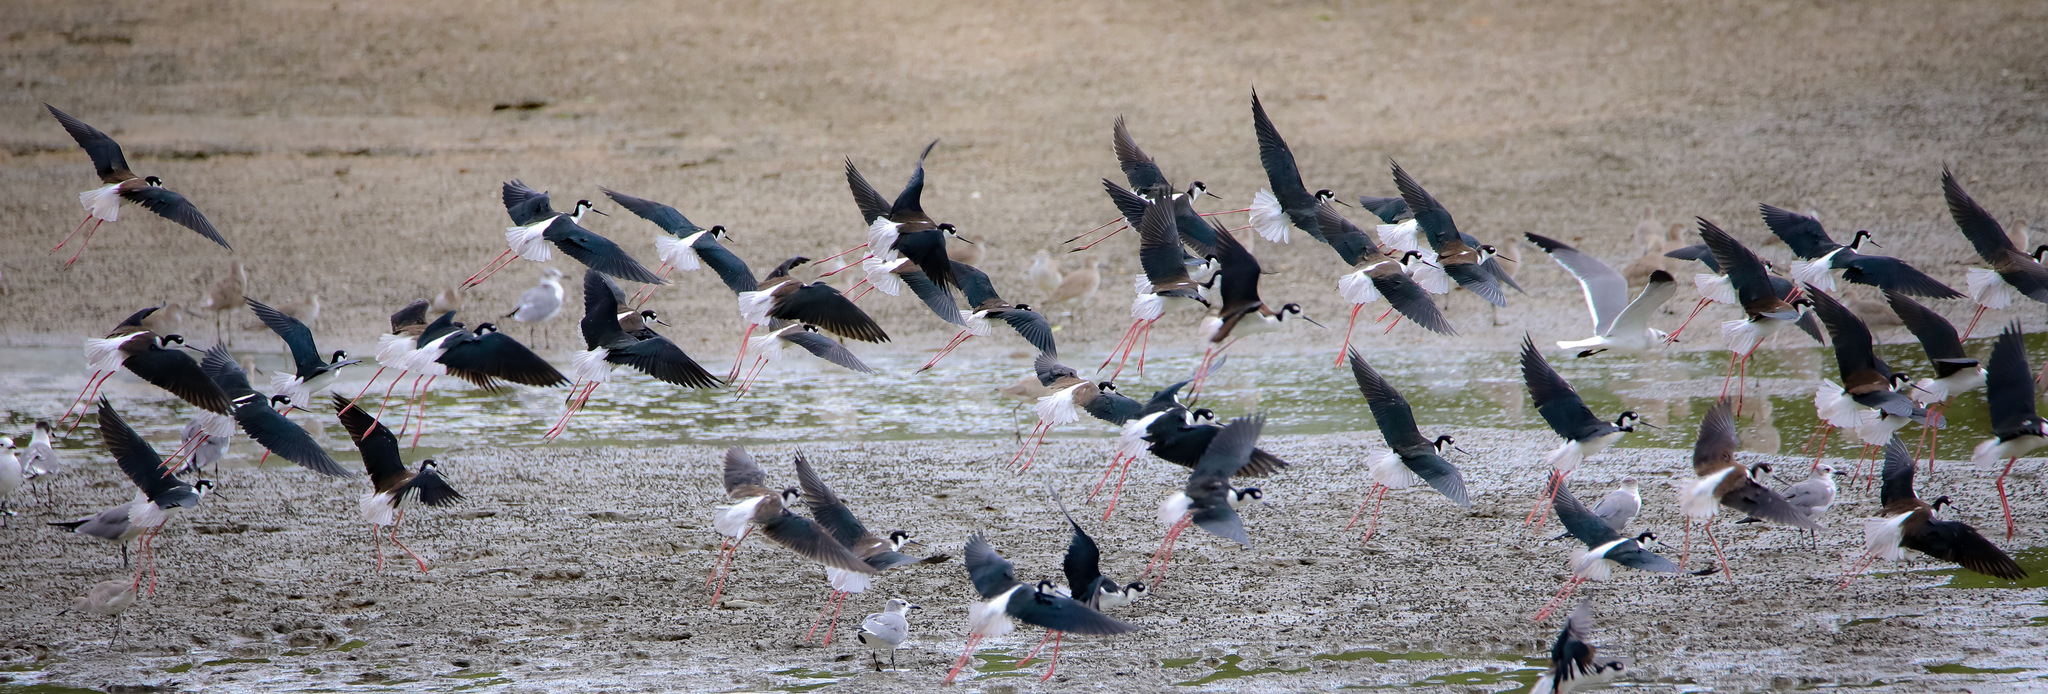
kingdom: Animalia
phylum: Chordata
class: Aves
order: Charadriiformes
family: Recurvirostridae
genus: Himantopus
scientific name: Himantopus mexicanus
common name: Black-necked stilt
